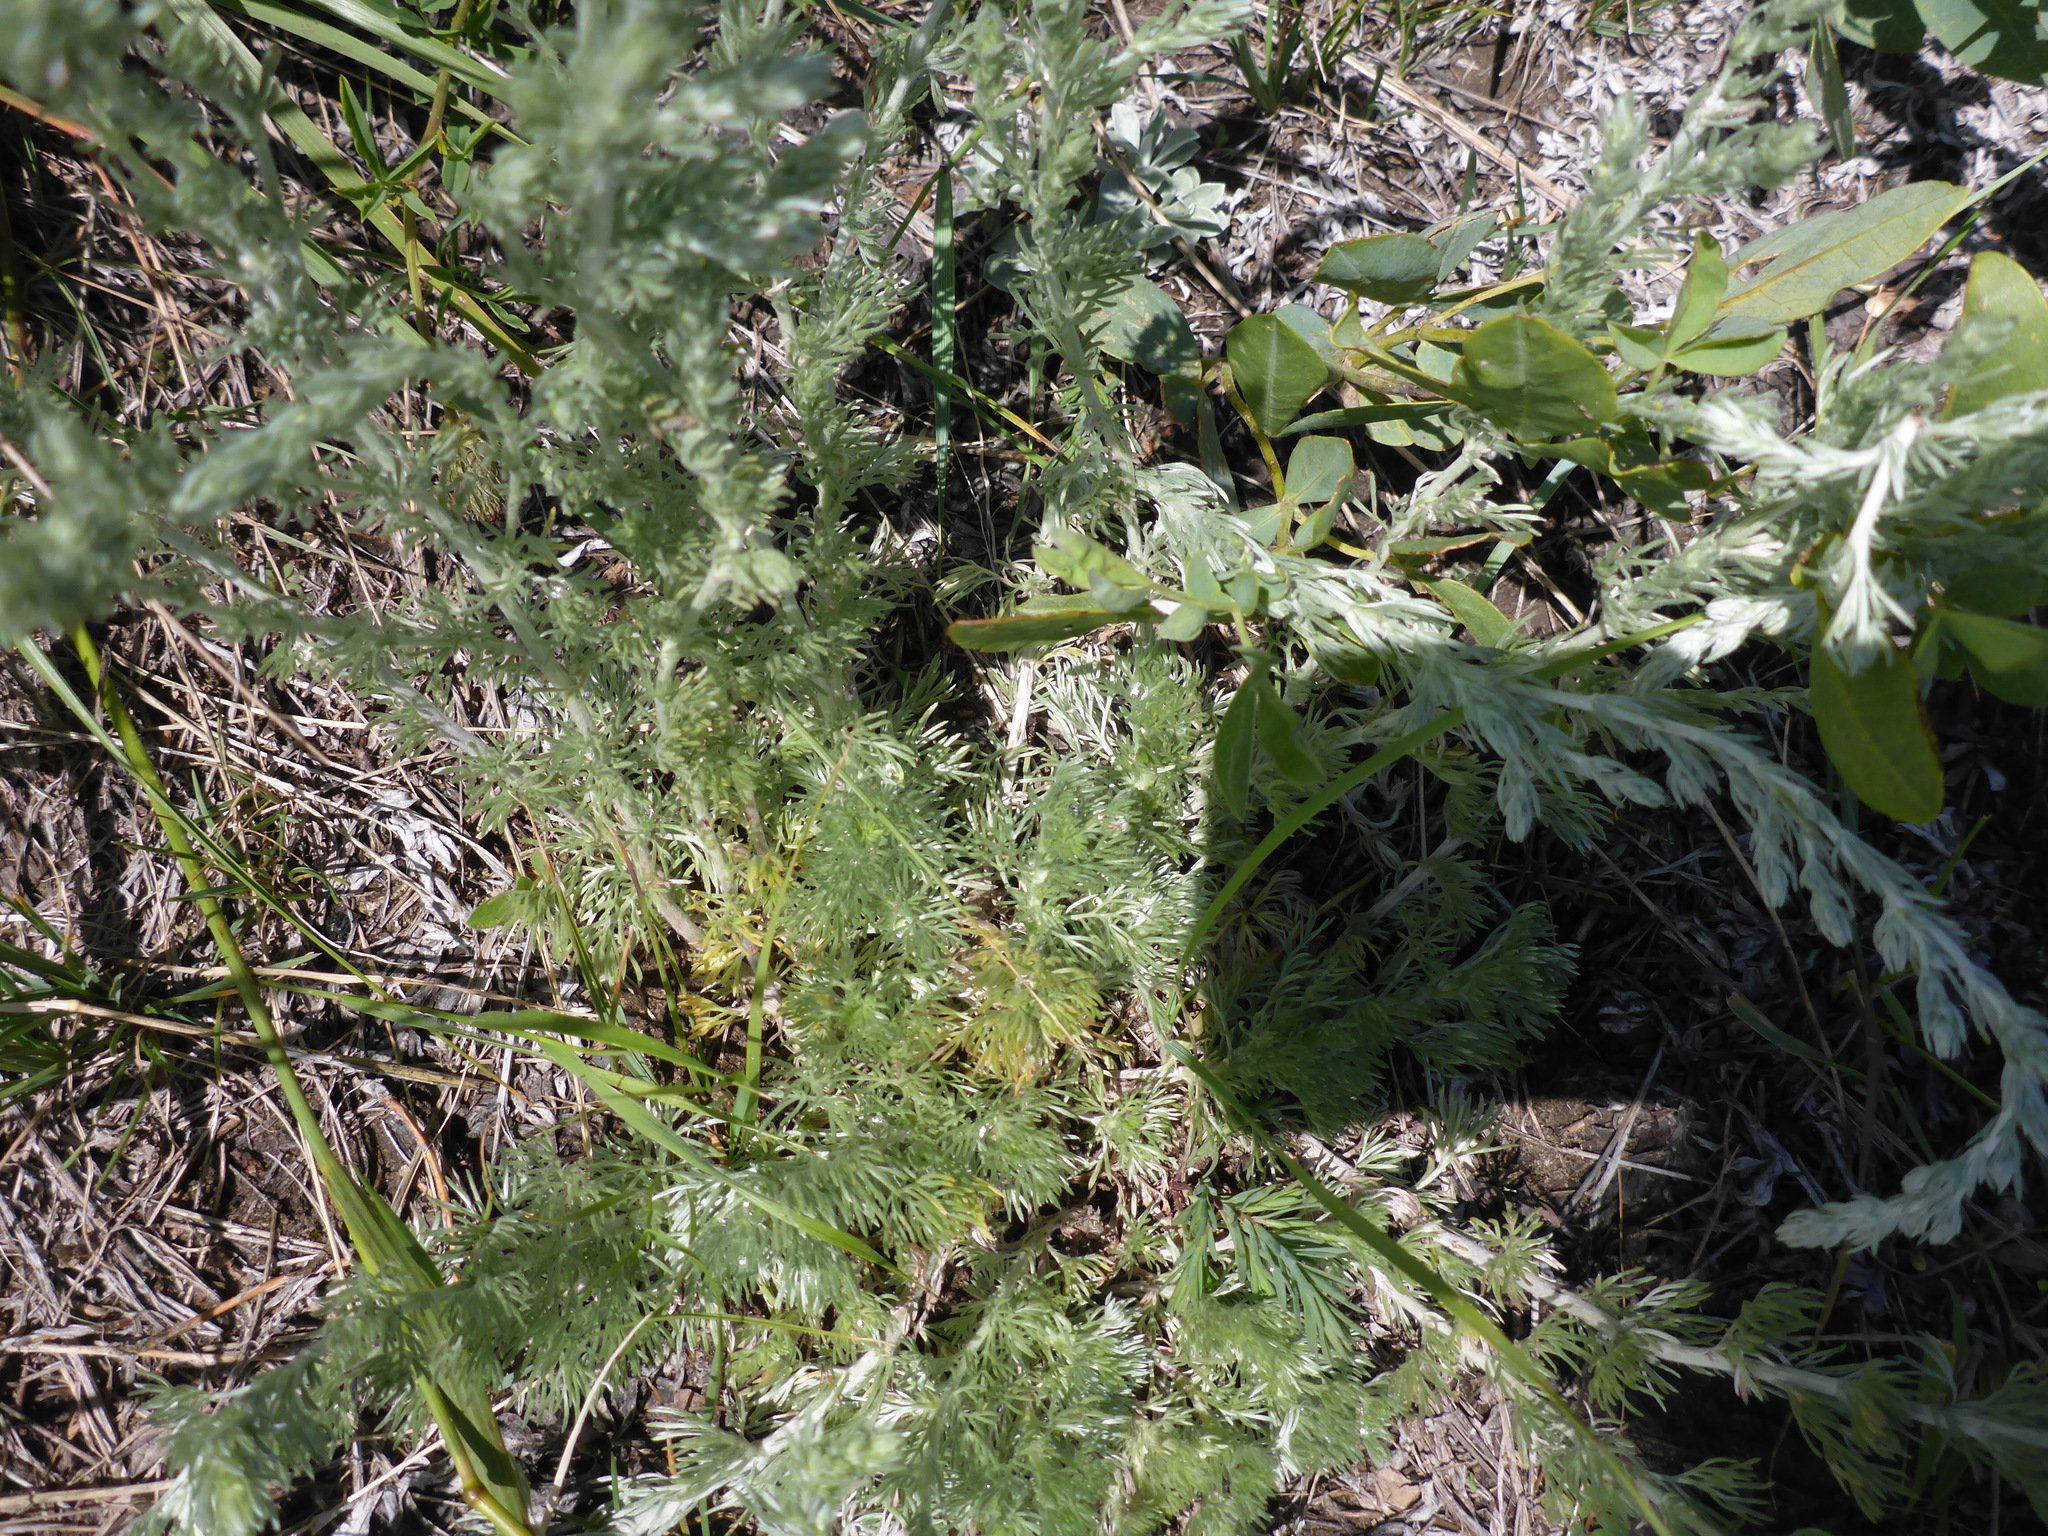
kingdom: Plantae
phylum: Tracheophyta
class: Magnoliopsida
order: Asterales
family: Asteraceae
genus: Artemisia
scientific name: Artemisia frigida
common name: Prairie sagewort
